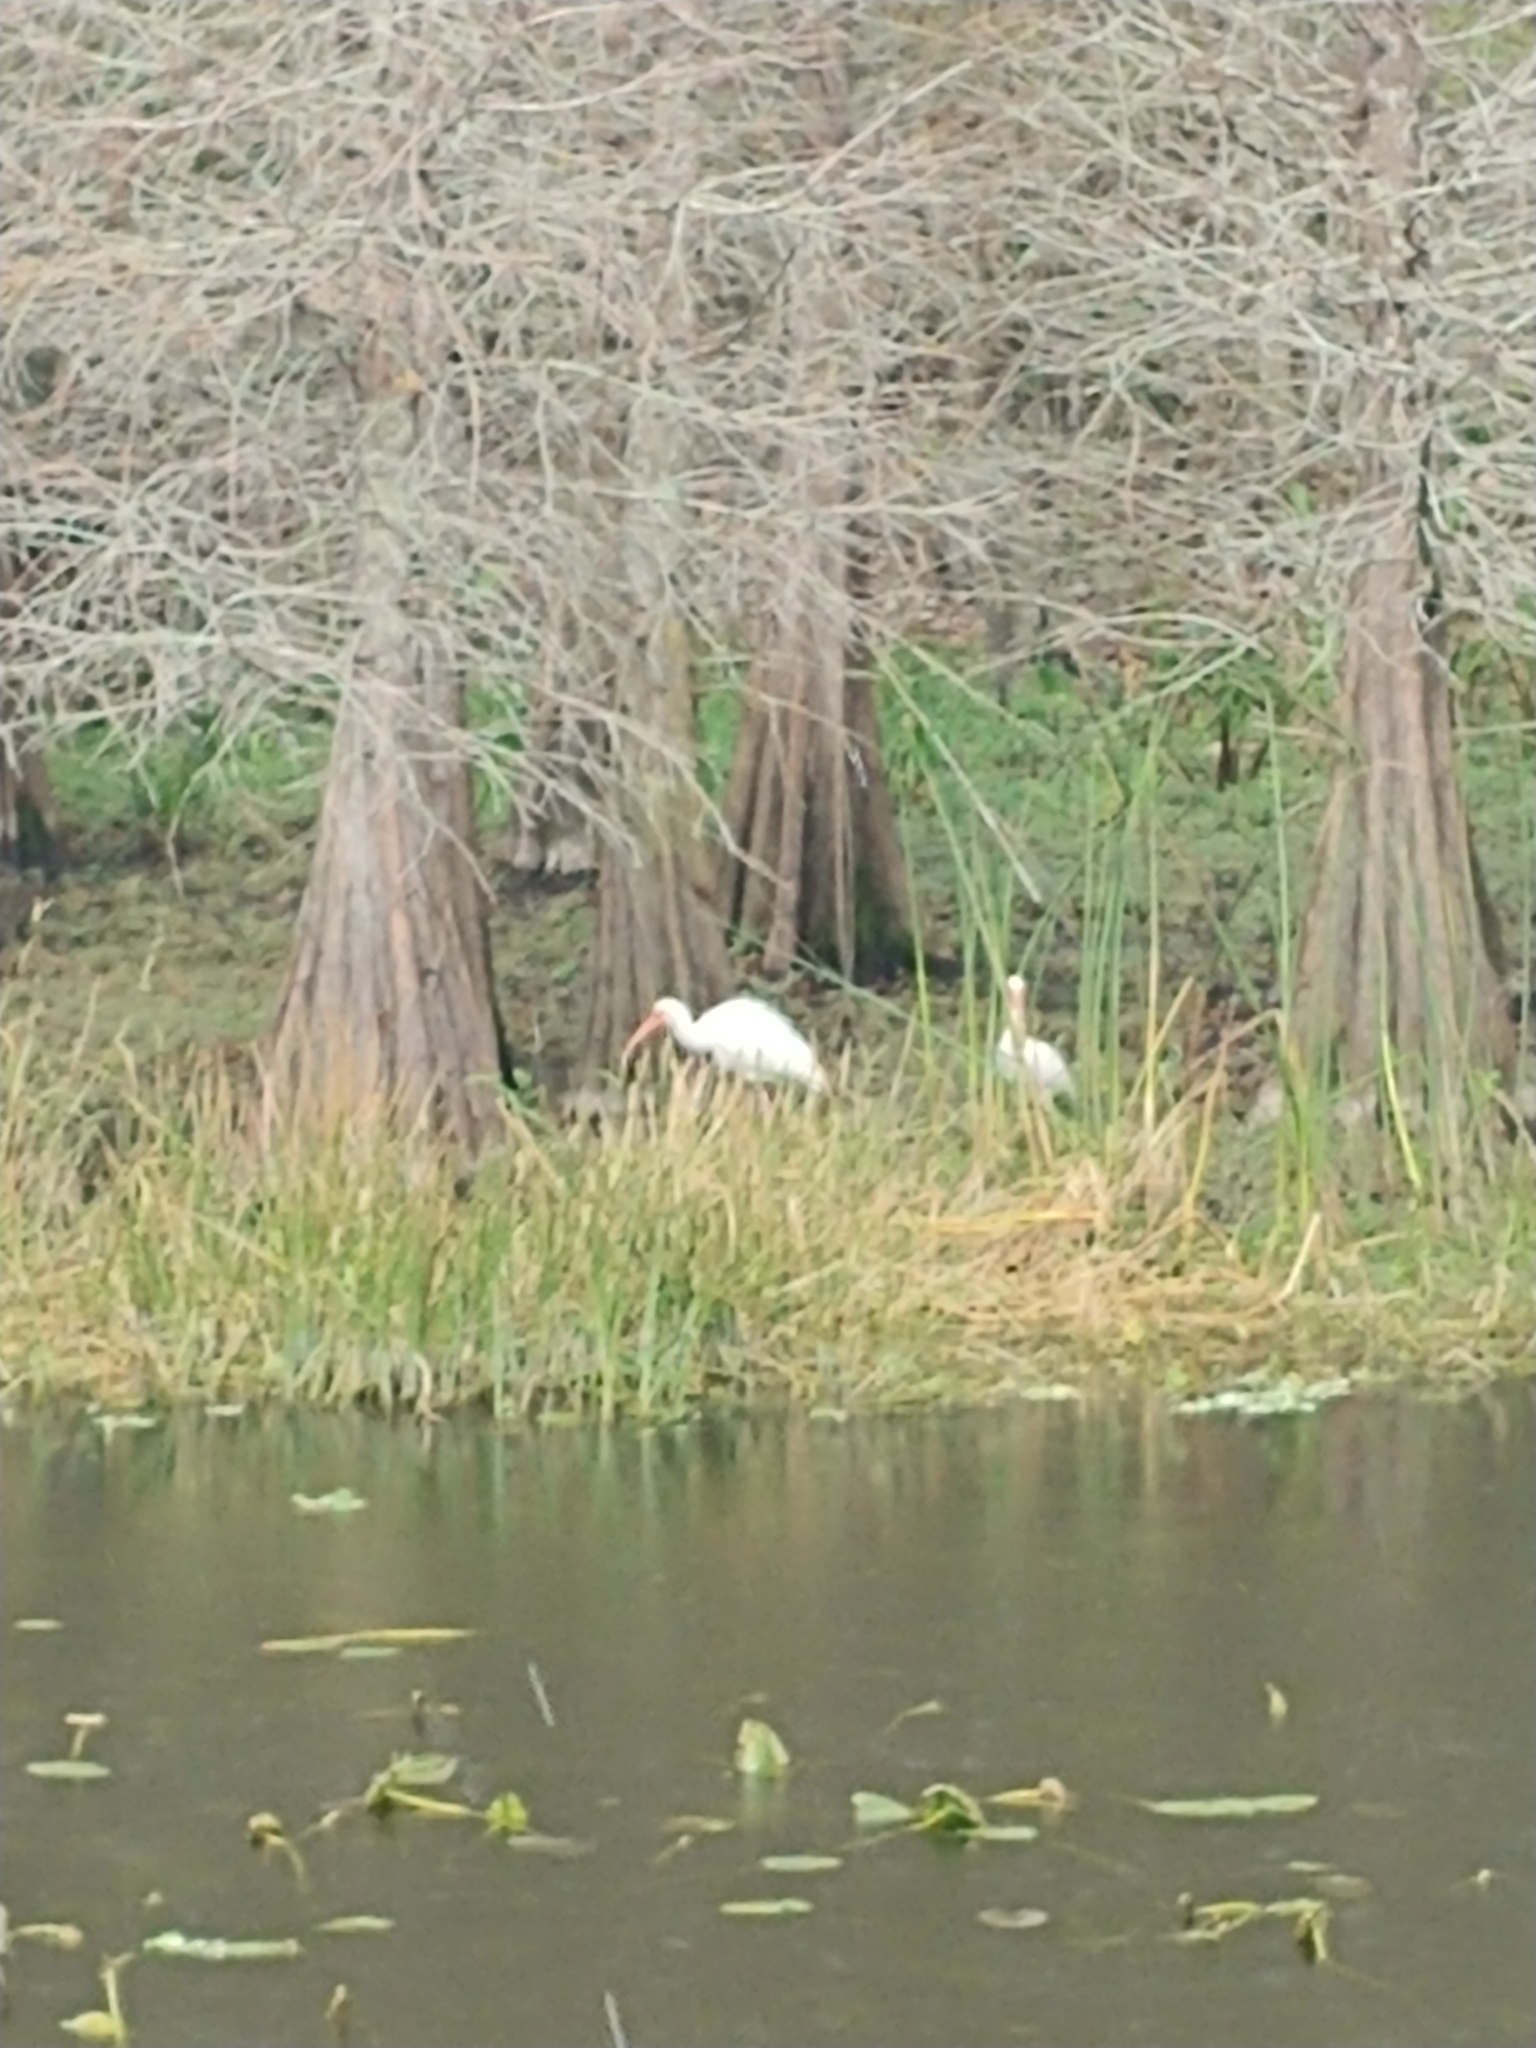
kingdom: Animalia
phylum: Chordata
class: Aves
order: Pelecaniformes
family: Threskiornithidae
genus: Eudocimus
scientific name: Eudocimus albus
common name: White ibis
